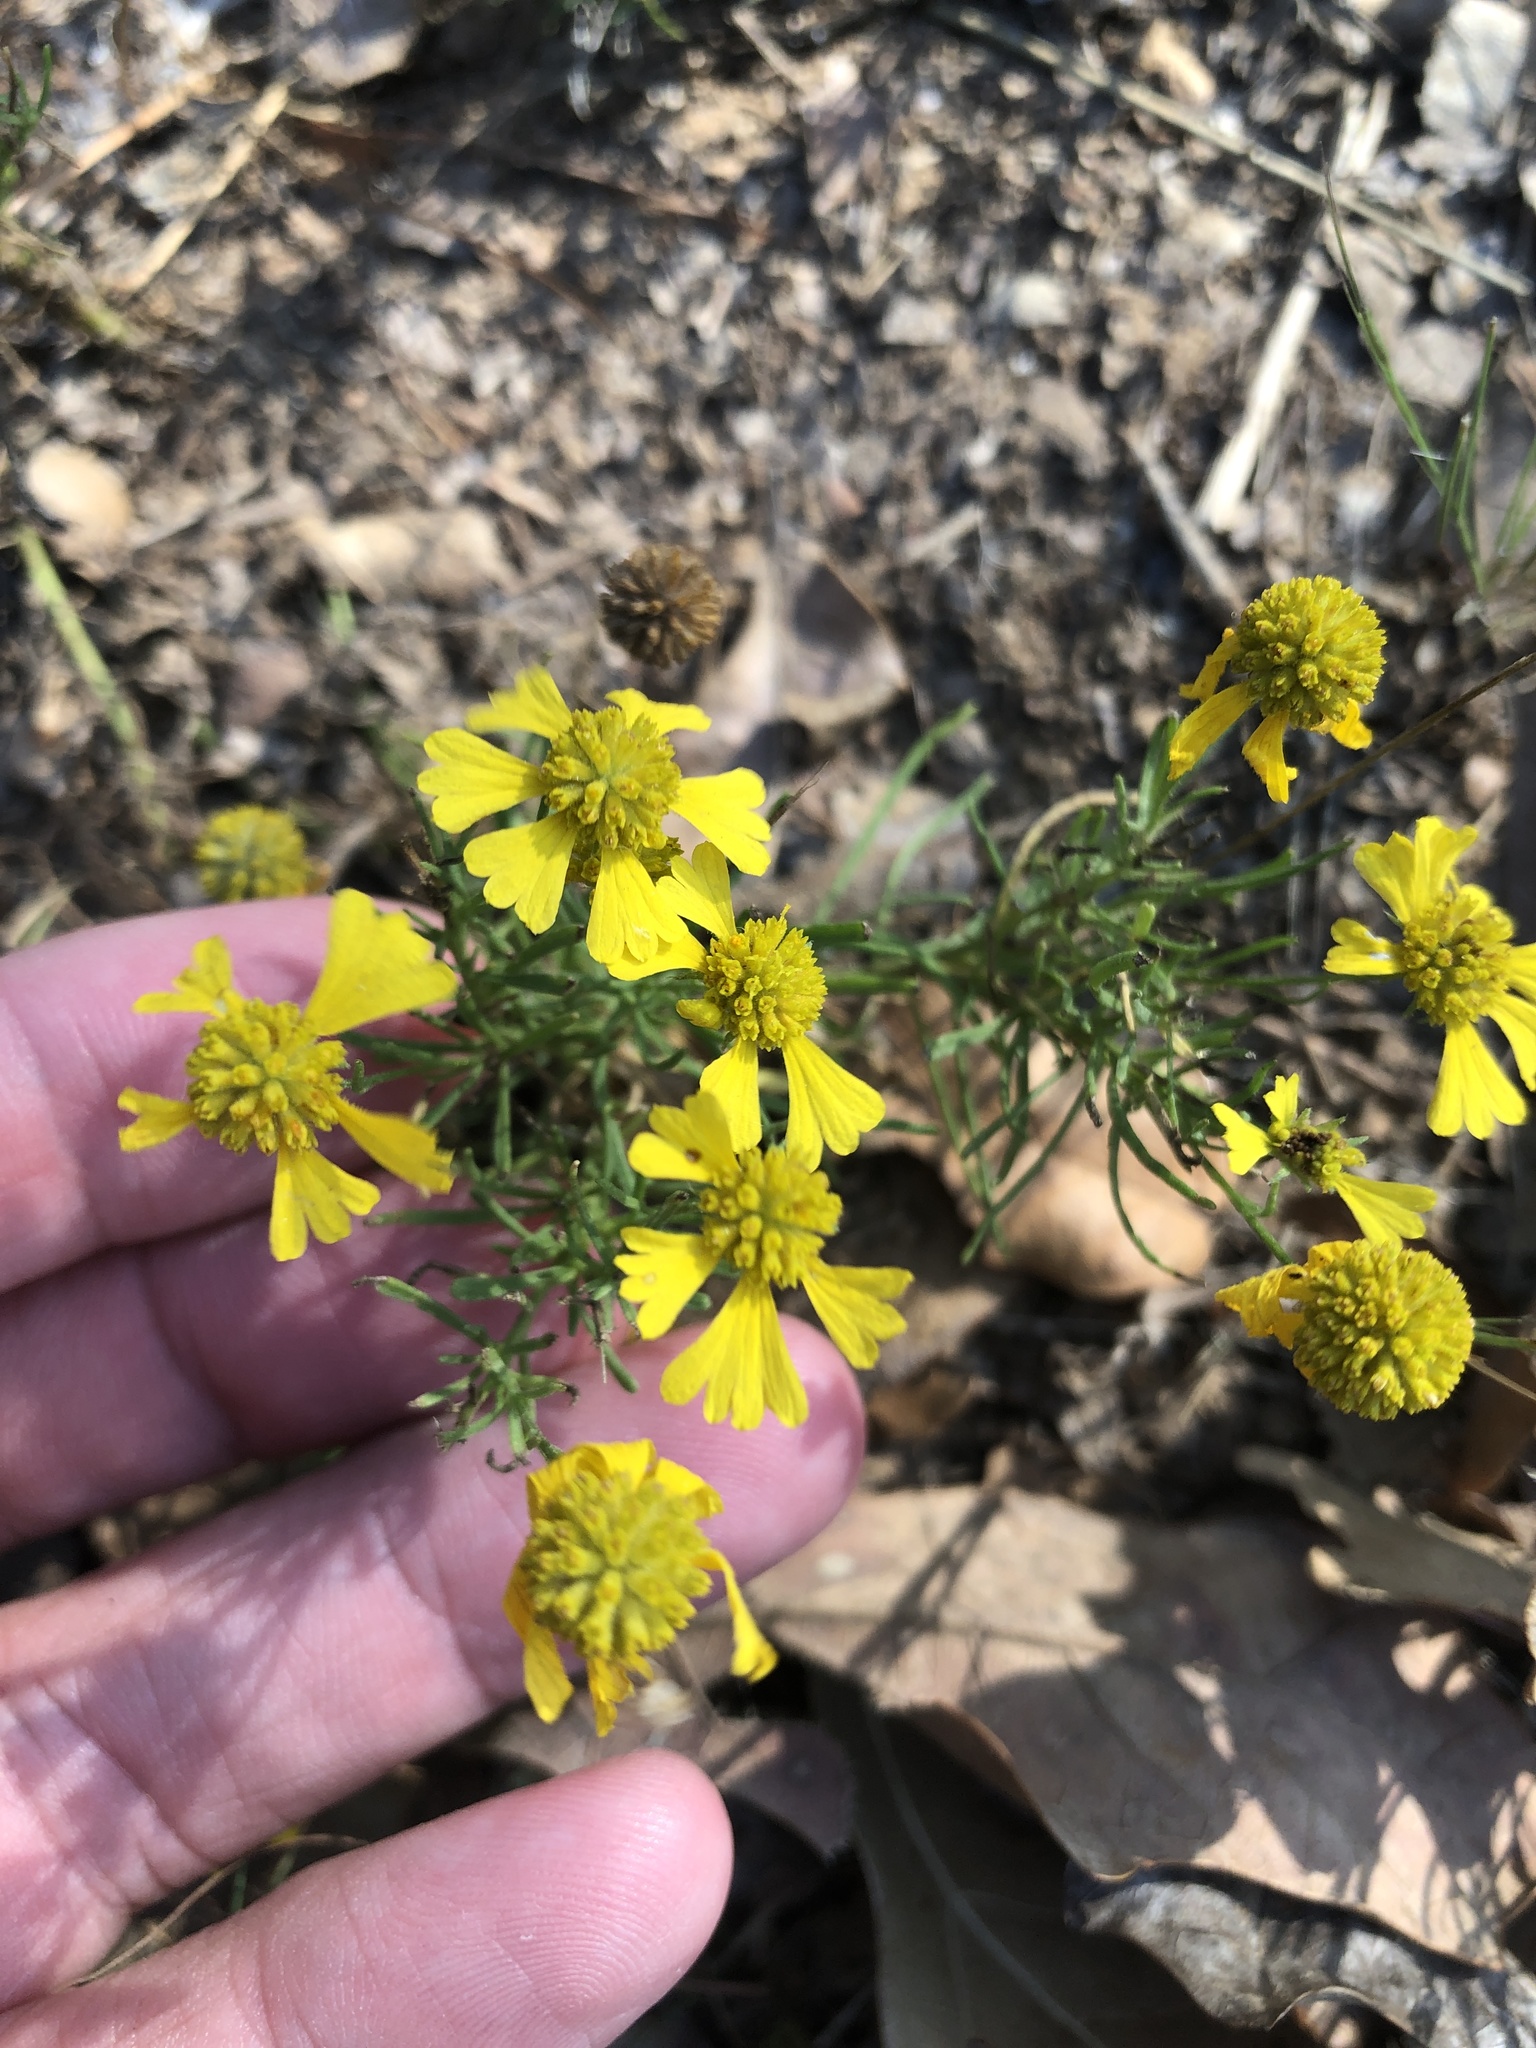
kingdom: Plantae
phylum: Tracheophyta
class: Magnoliopsida
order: Asterales
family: Asteraceae
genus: Helenium
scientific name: Helenium amarum
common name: Bitter sneezeweed
